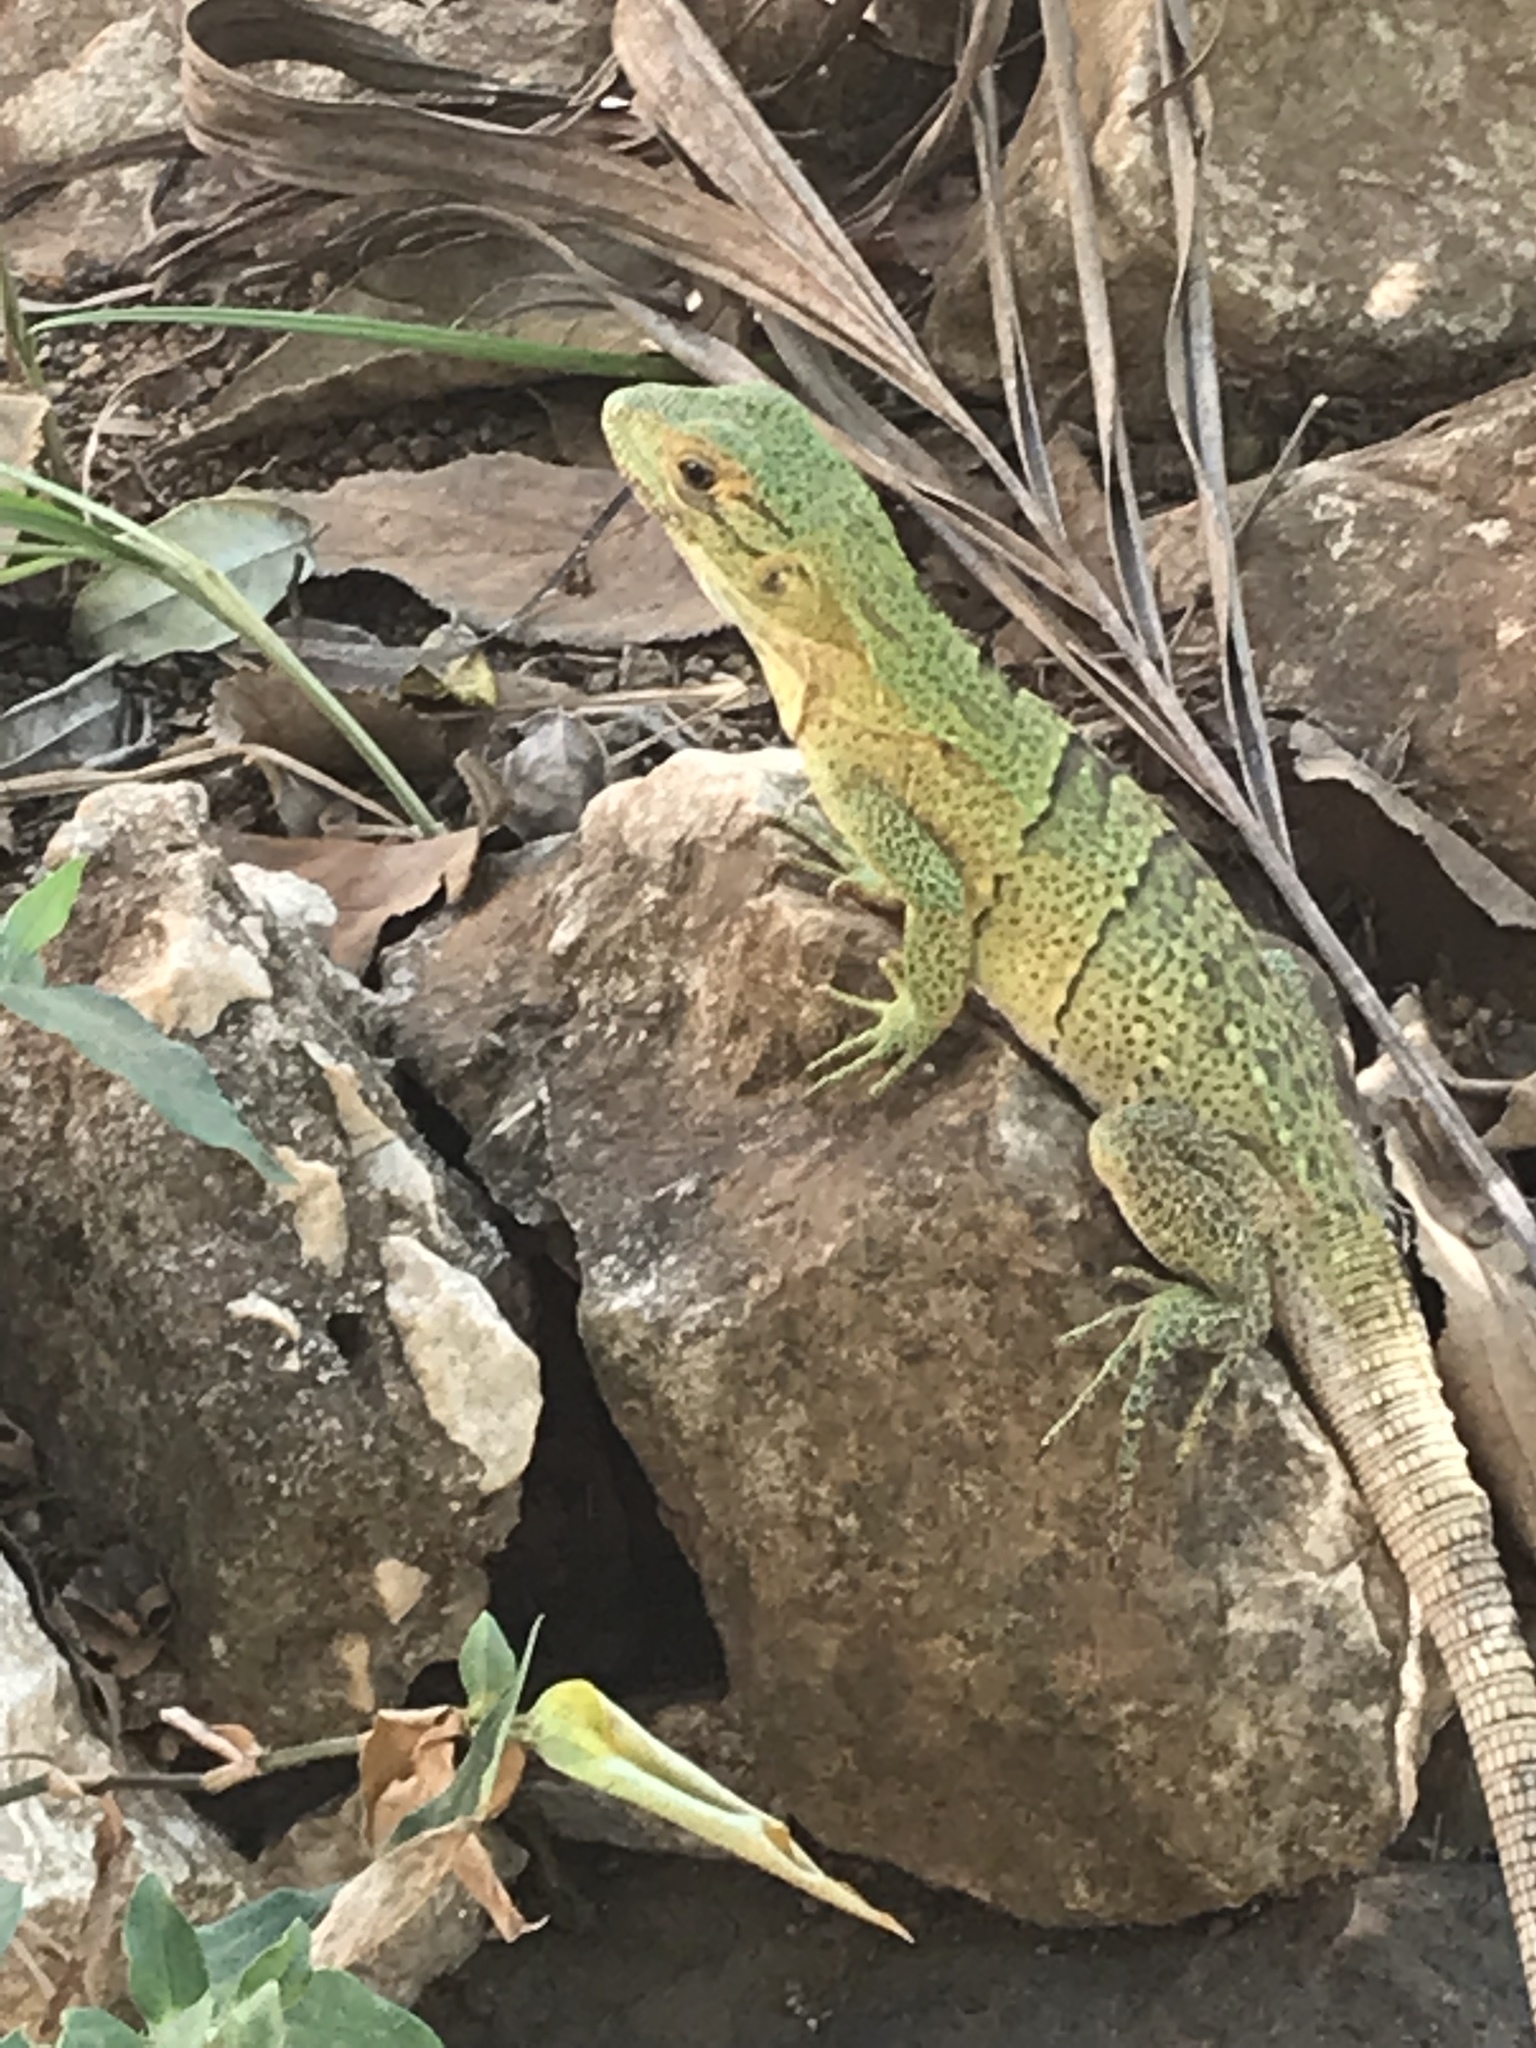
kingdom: Animalia
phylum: Chordata
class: Squamata
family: Iguanidae
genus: Ctenosaura
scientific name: Ctenosaura similis
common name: Black spiny-tailed iguana
